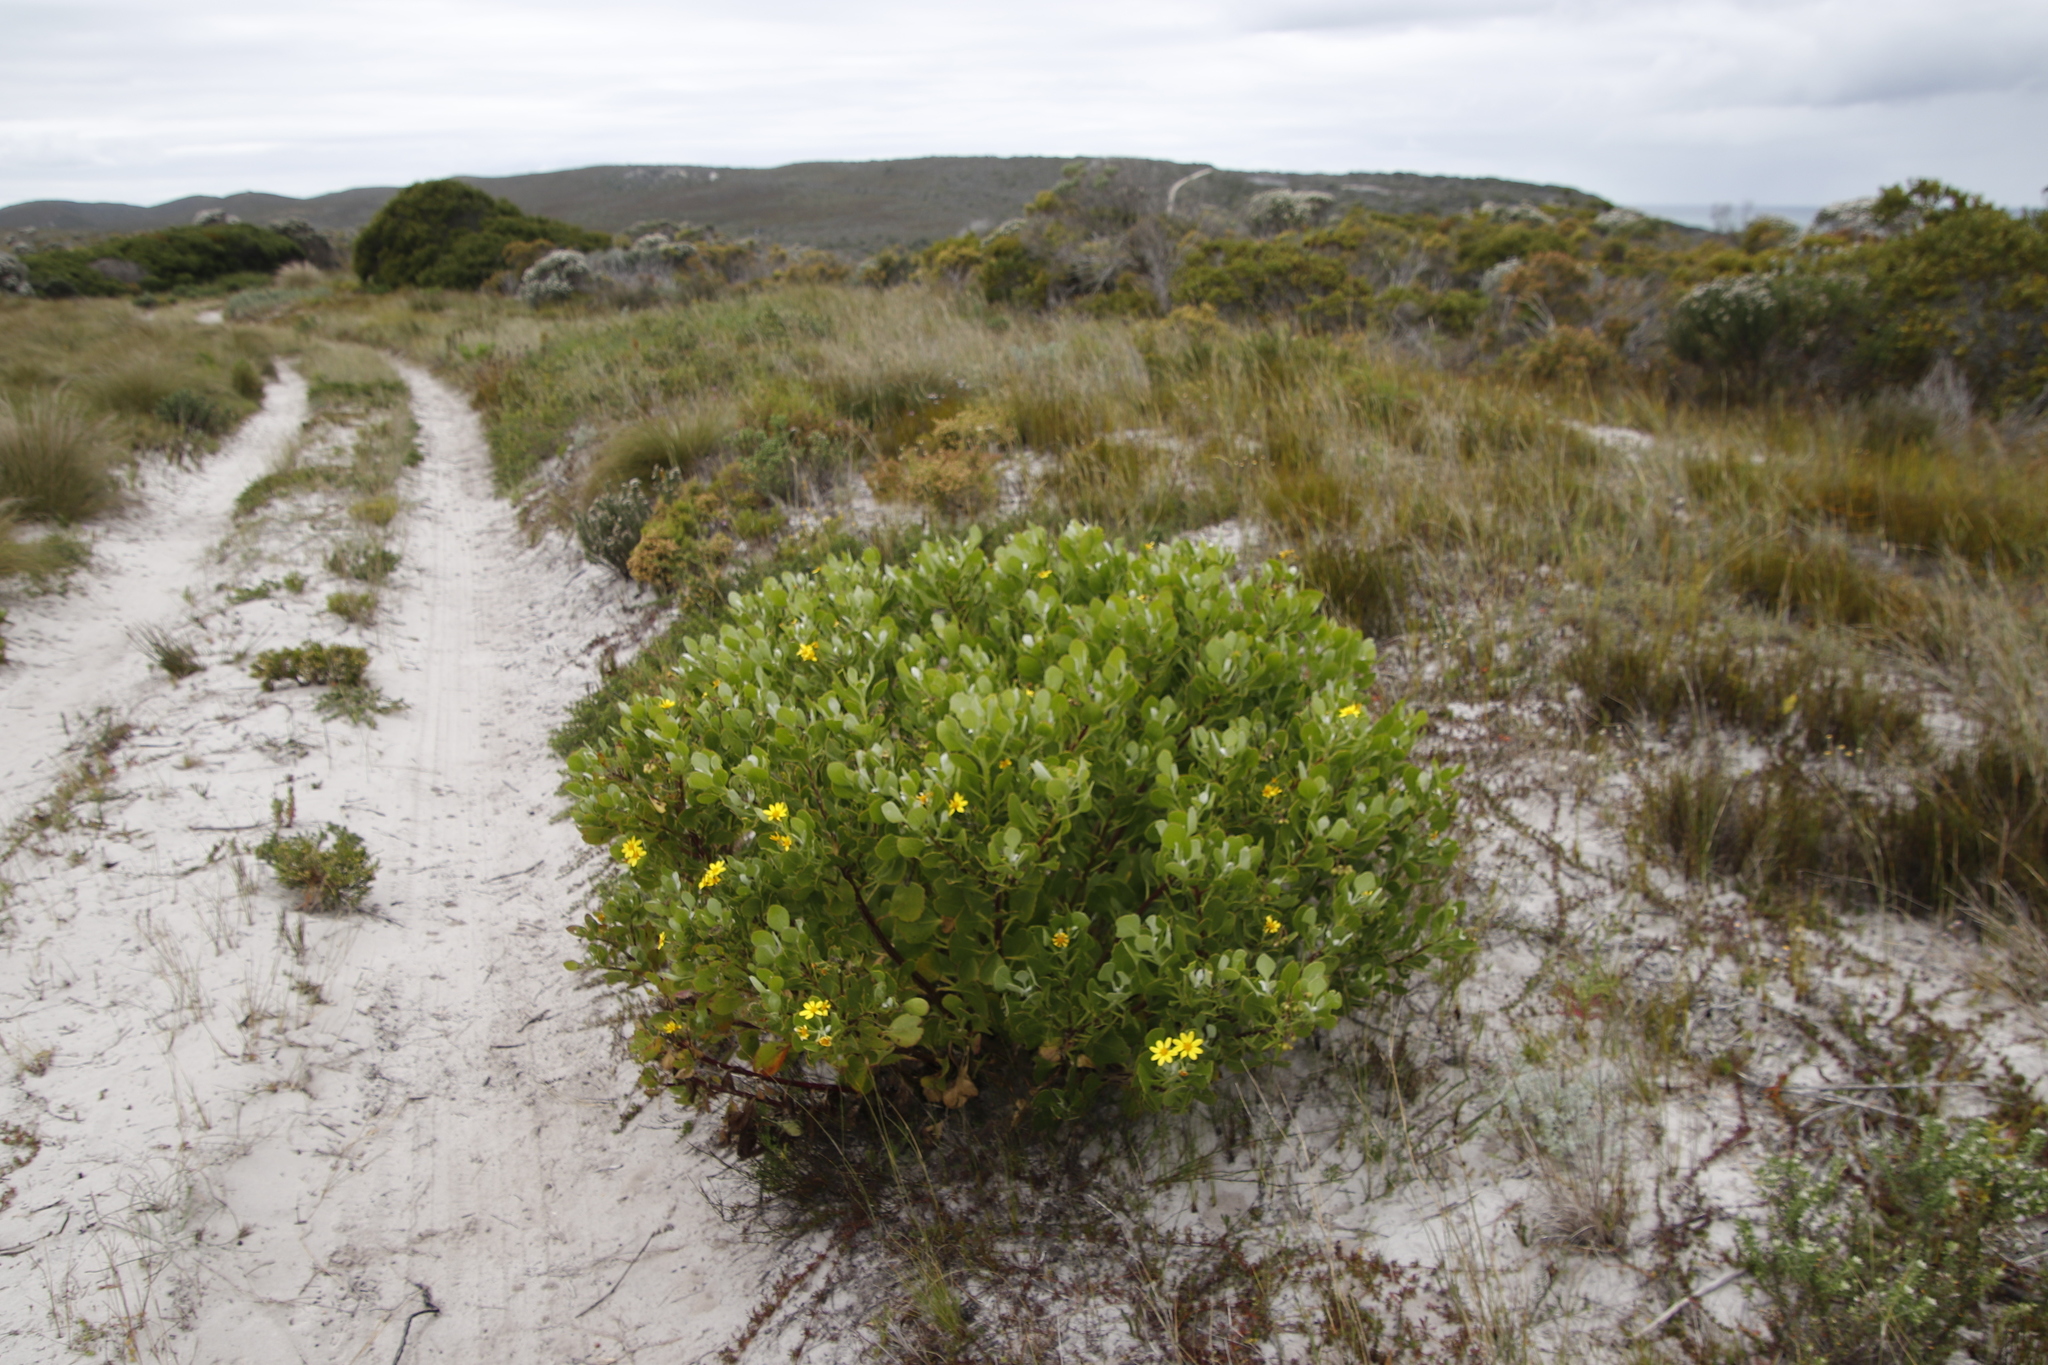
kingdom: Plantae
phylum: Tracheophyta
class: Magnoliopsida
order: Asterales
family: Asteraceae
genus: Osteospermum
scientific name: Osteospermum moniliferum
